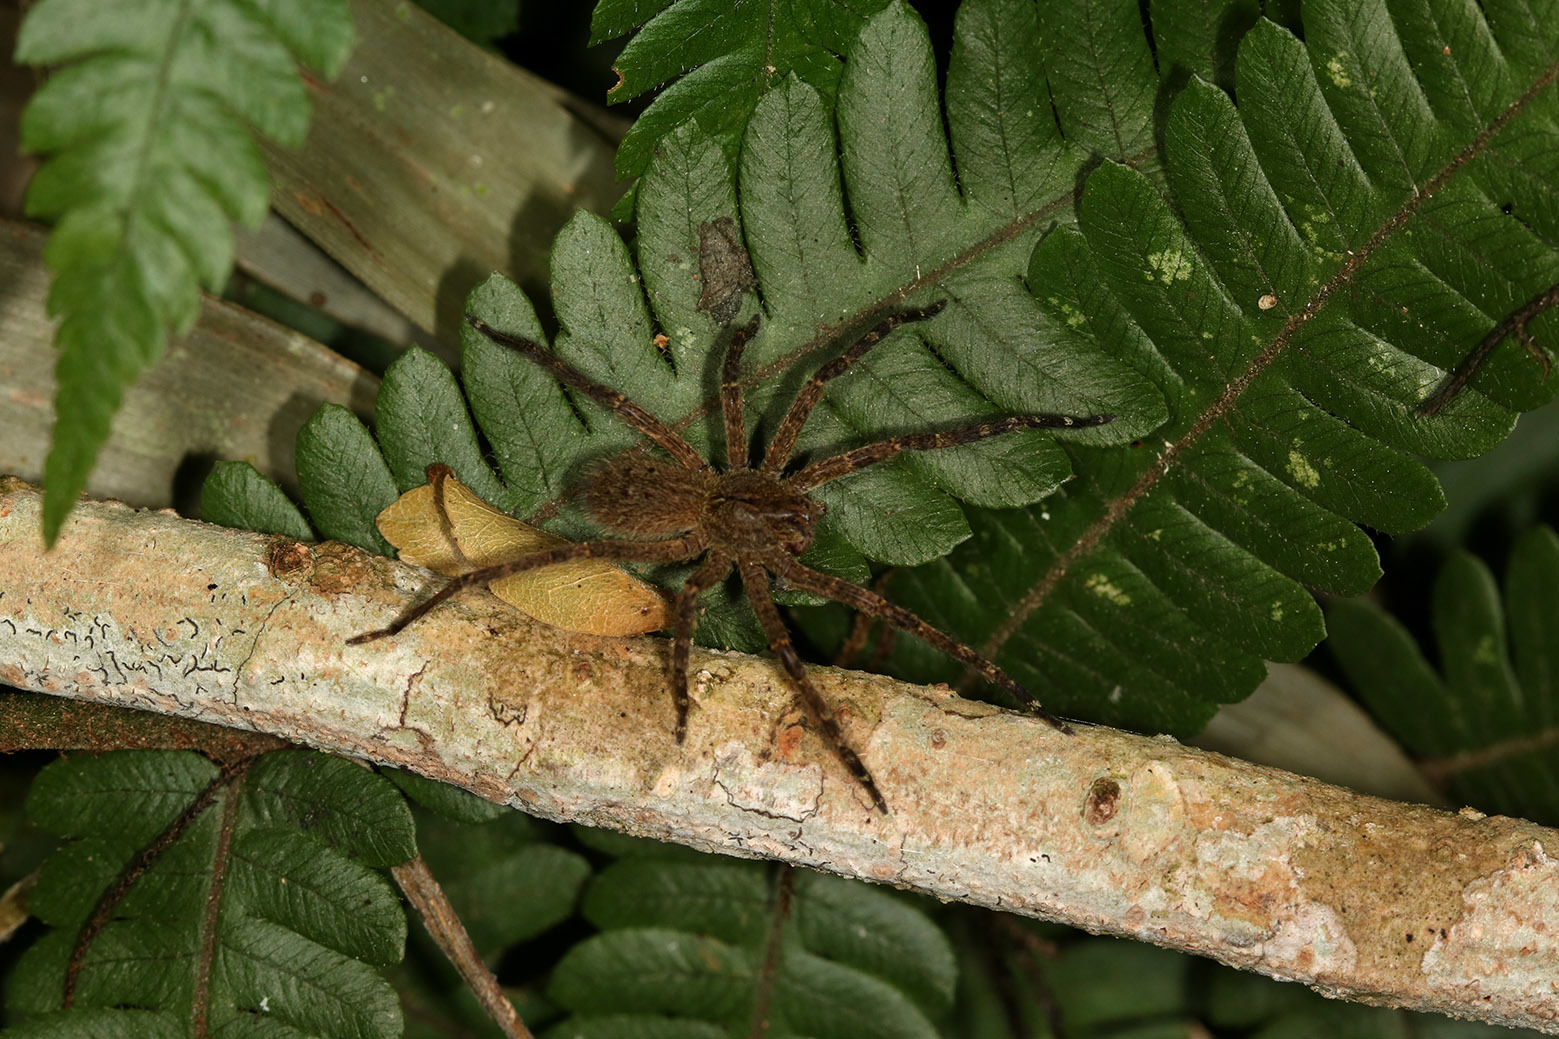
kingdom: Animalia
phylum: Arthropoda
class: Arachnida
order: Araneae
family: Ctenidae
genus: Phoneutria
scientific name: Phoneutria nigriventer
